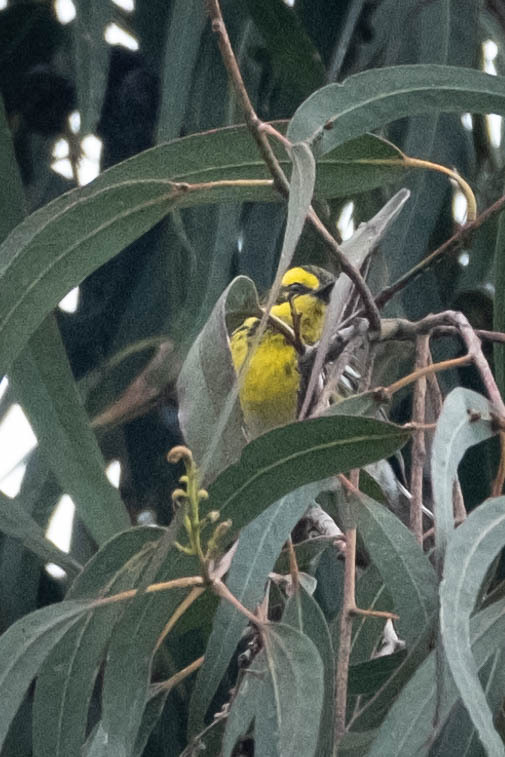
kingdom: Animalia
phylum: Chordata
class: Aves
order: Passeriformes
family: Parulidae
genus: Setophaga
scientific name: Setophaga townsendi
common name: Townsend's warbler
